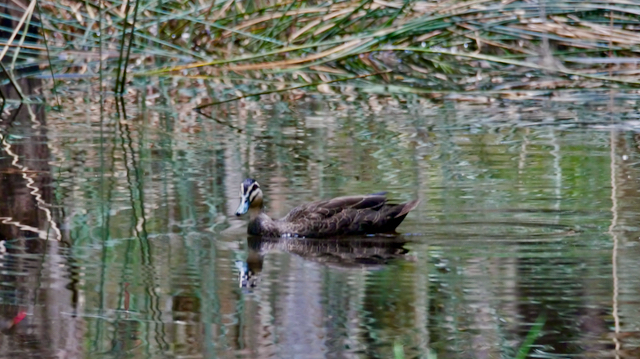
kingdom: Animalia
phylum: Chordata
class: Aves
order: Anseriformes
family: Anatidae
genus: Anas
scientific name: Anas superciliosa
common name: Pacific black duck
